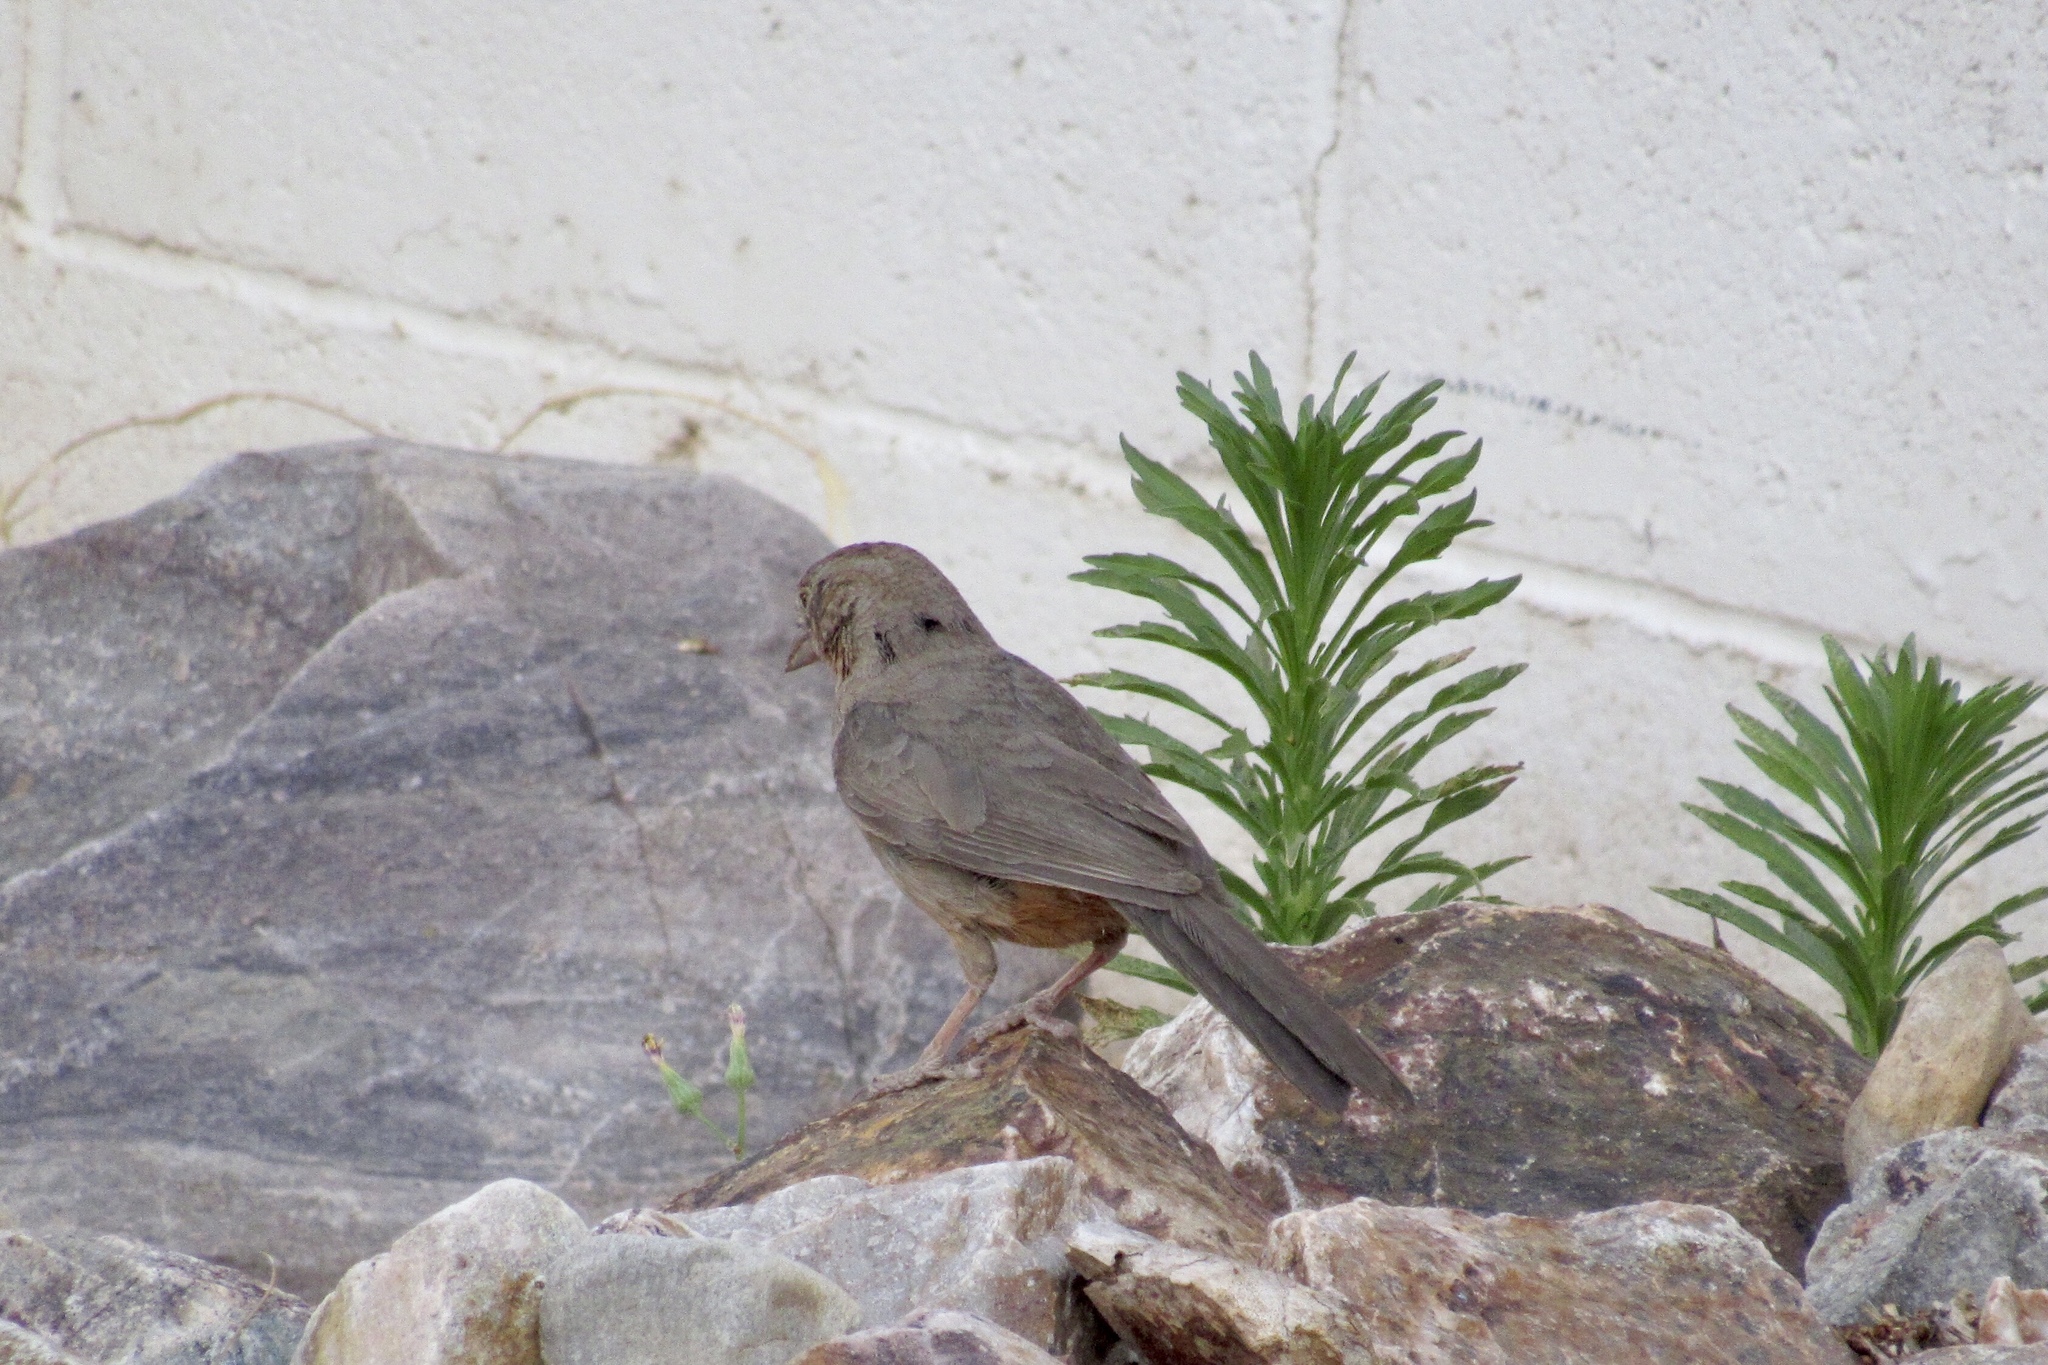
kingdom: Animalia
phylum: Chordata
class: Aves
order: Passeriformes
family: Passerellidae
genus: Melozone
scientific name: Melozone fusca
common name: Canyon towhee
